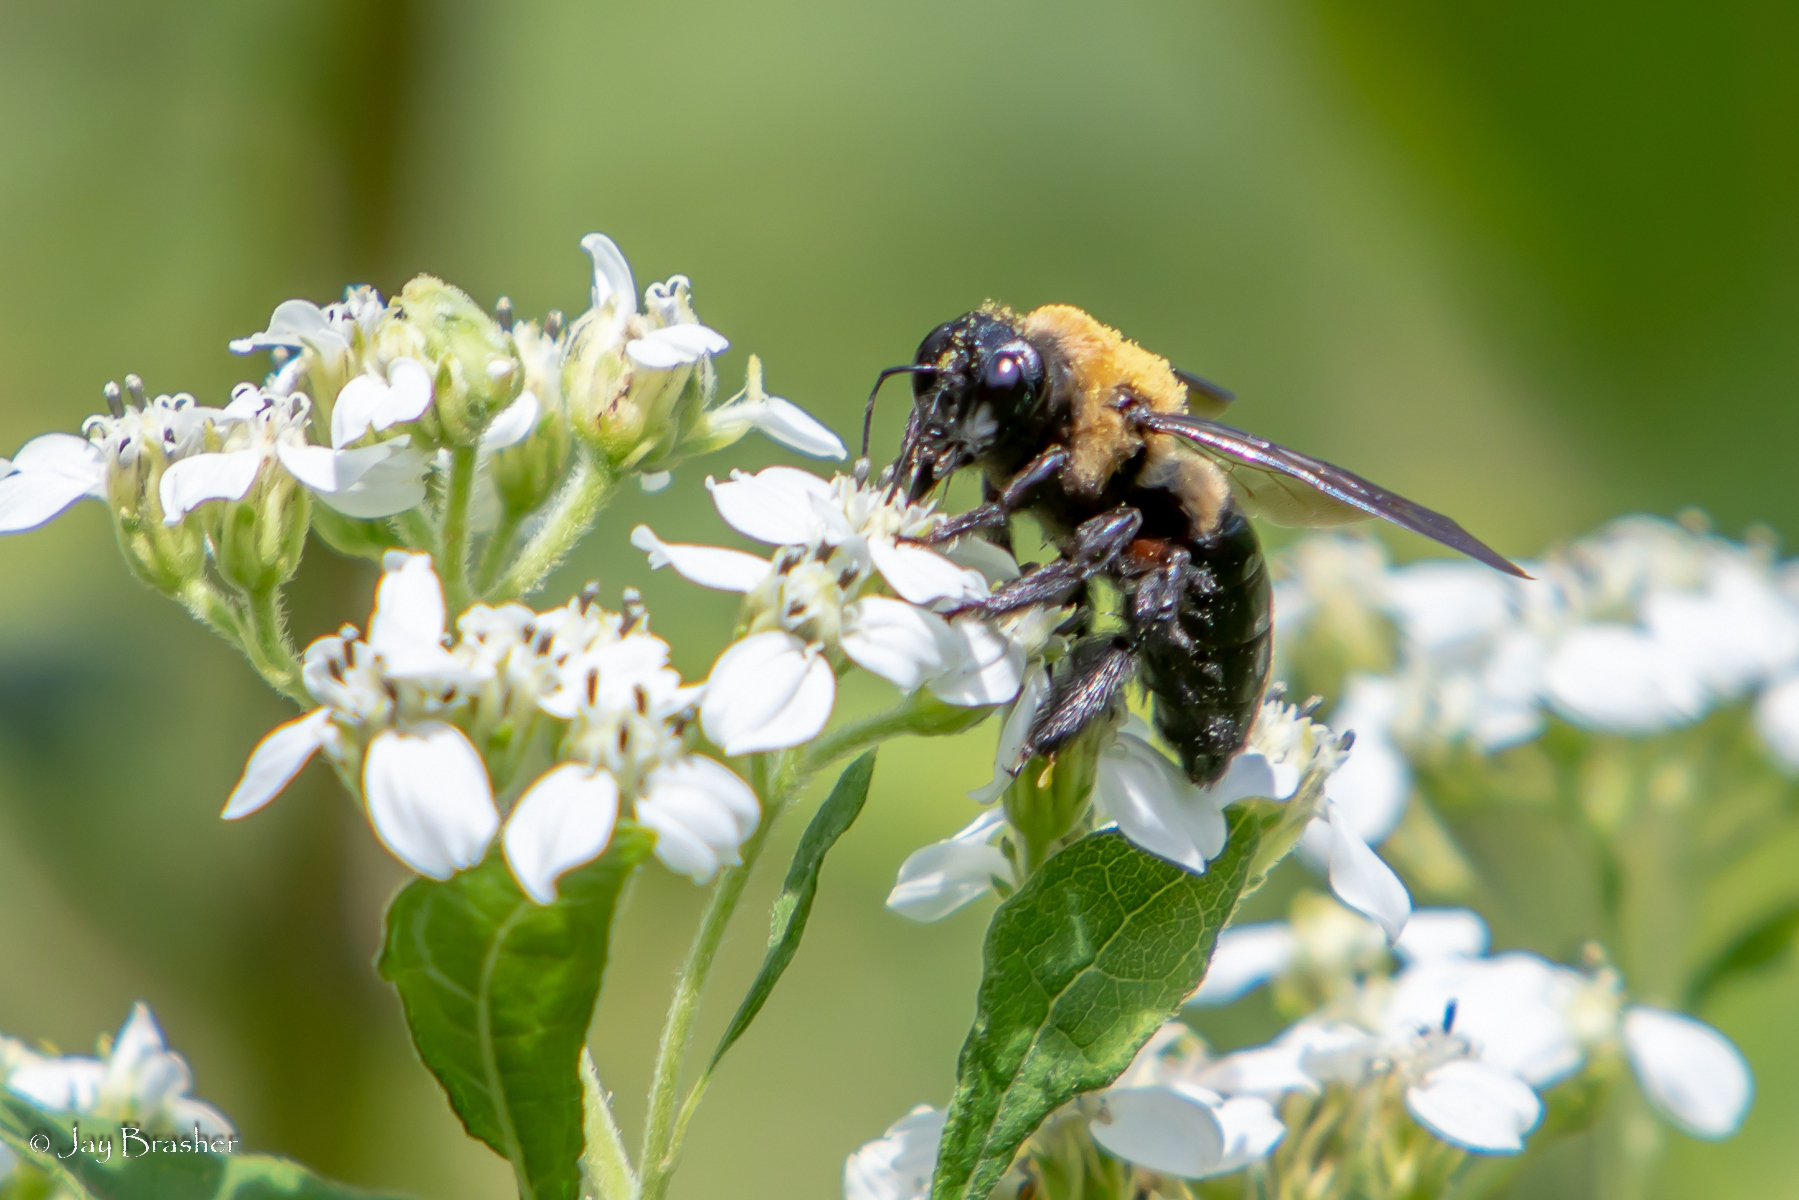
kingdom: Animalia
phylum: Arthropoda
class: Insecta
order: Hymenoptera
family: Apidae
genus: Xylocopa
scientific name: Xylocopa virginica
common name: Carpenter bee
